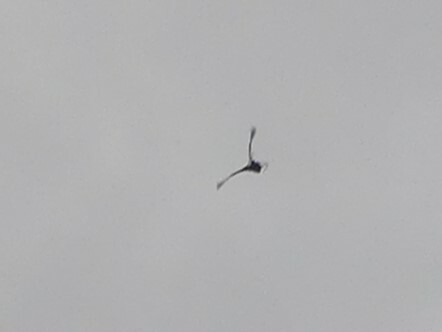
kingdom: Animalia
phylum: Chordata
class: Aves
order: Accipitriformes
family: Accipitridae
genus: Haliaeetus
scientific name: Haliaeetus leucocephalus
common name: Bald eagle
